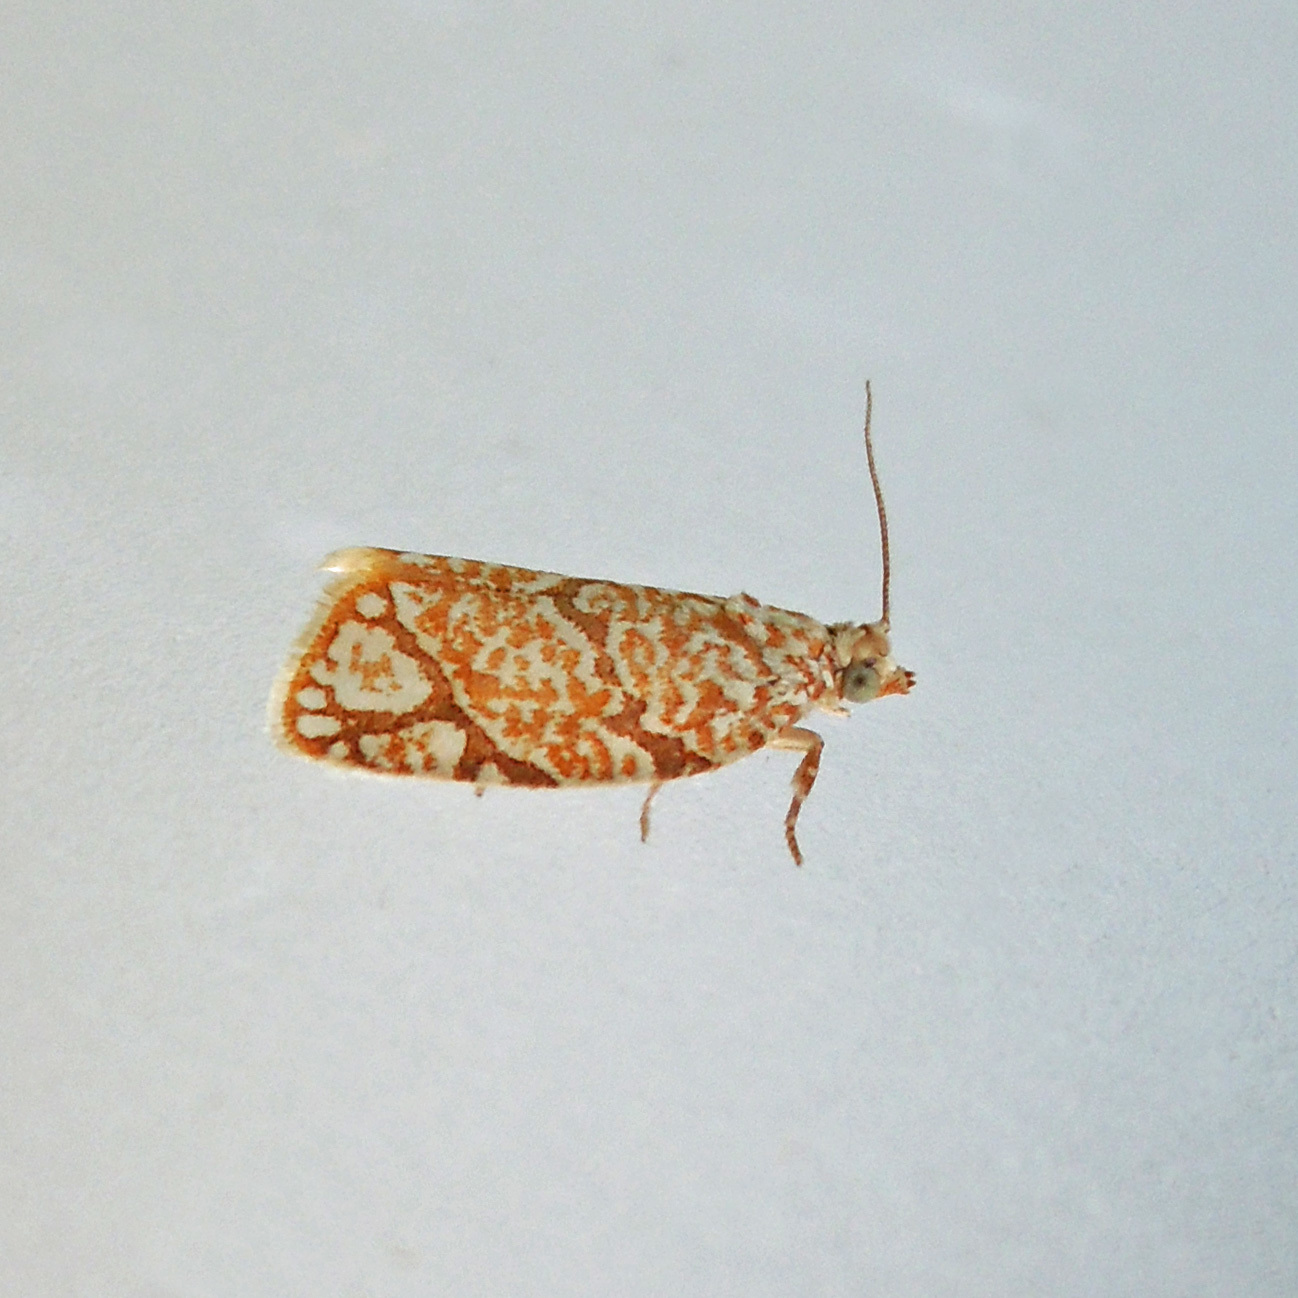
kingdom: Animalia
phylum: Arthropoda
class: Insecta
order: Lepidoptera
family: Tortricidae
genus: Argyrotaenia
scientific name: Argyrotaenia quercifoliana
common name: Yellow-winged oak leafroller moth
